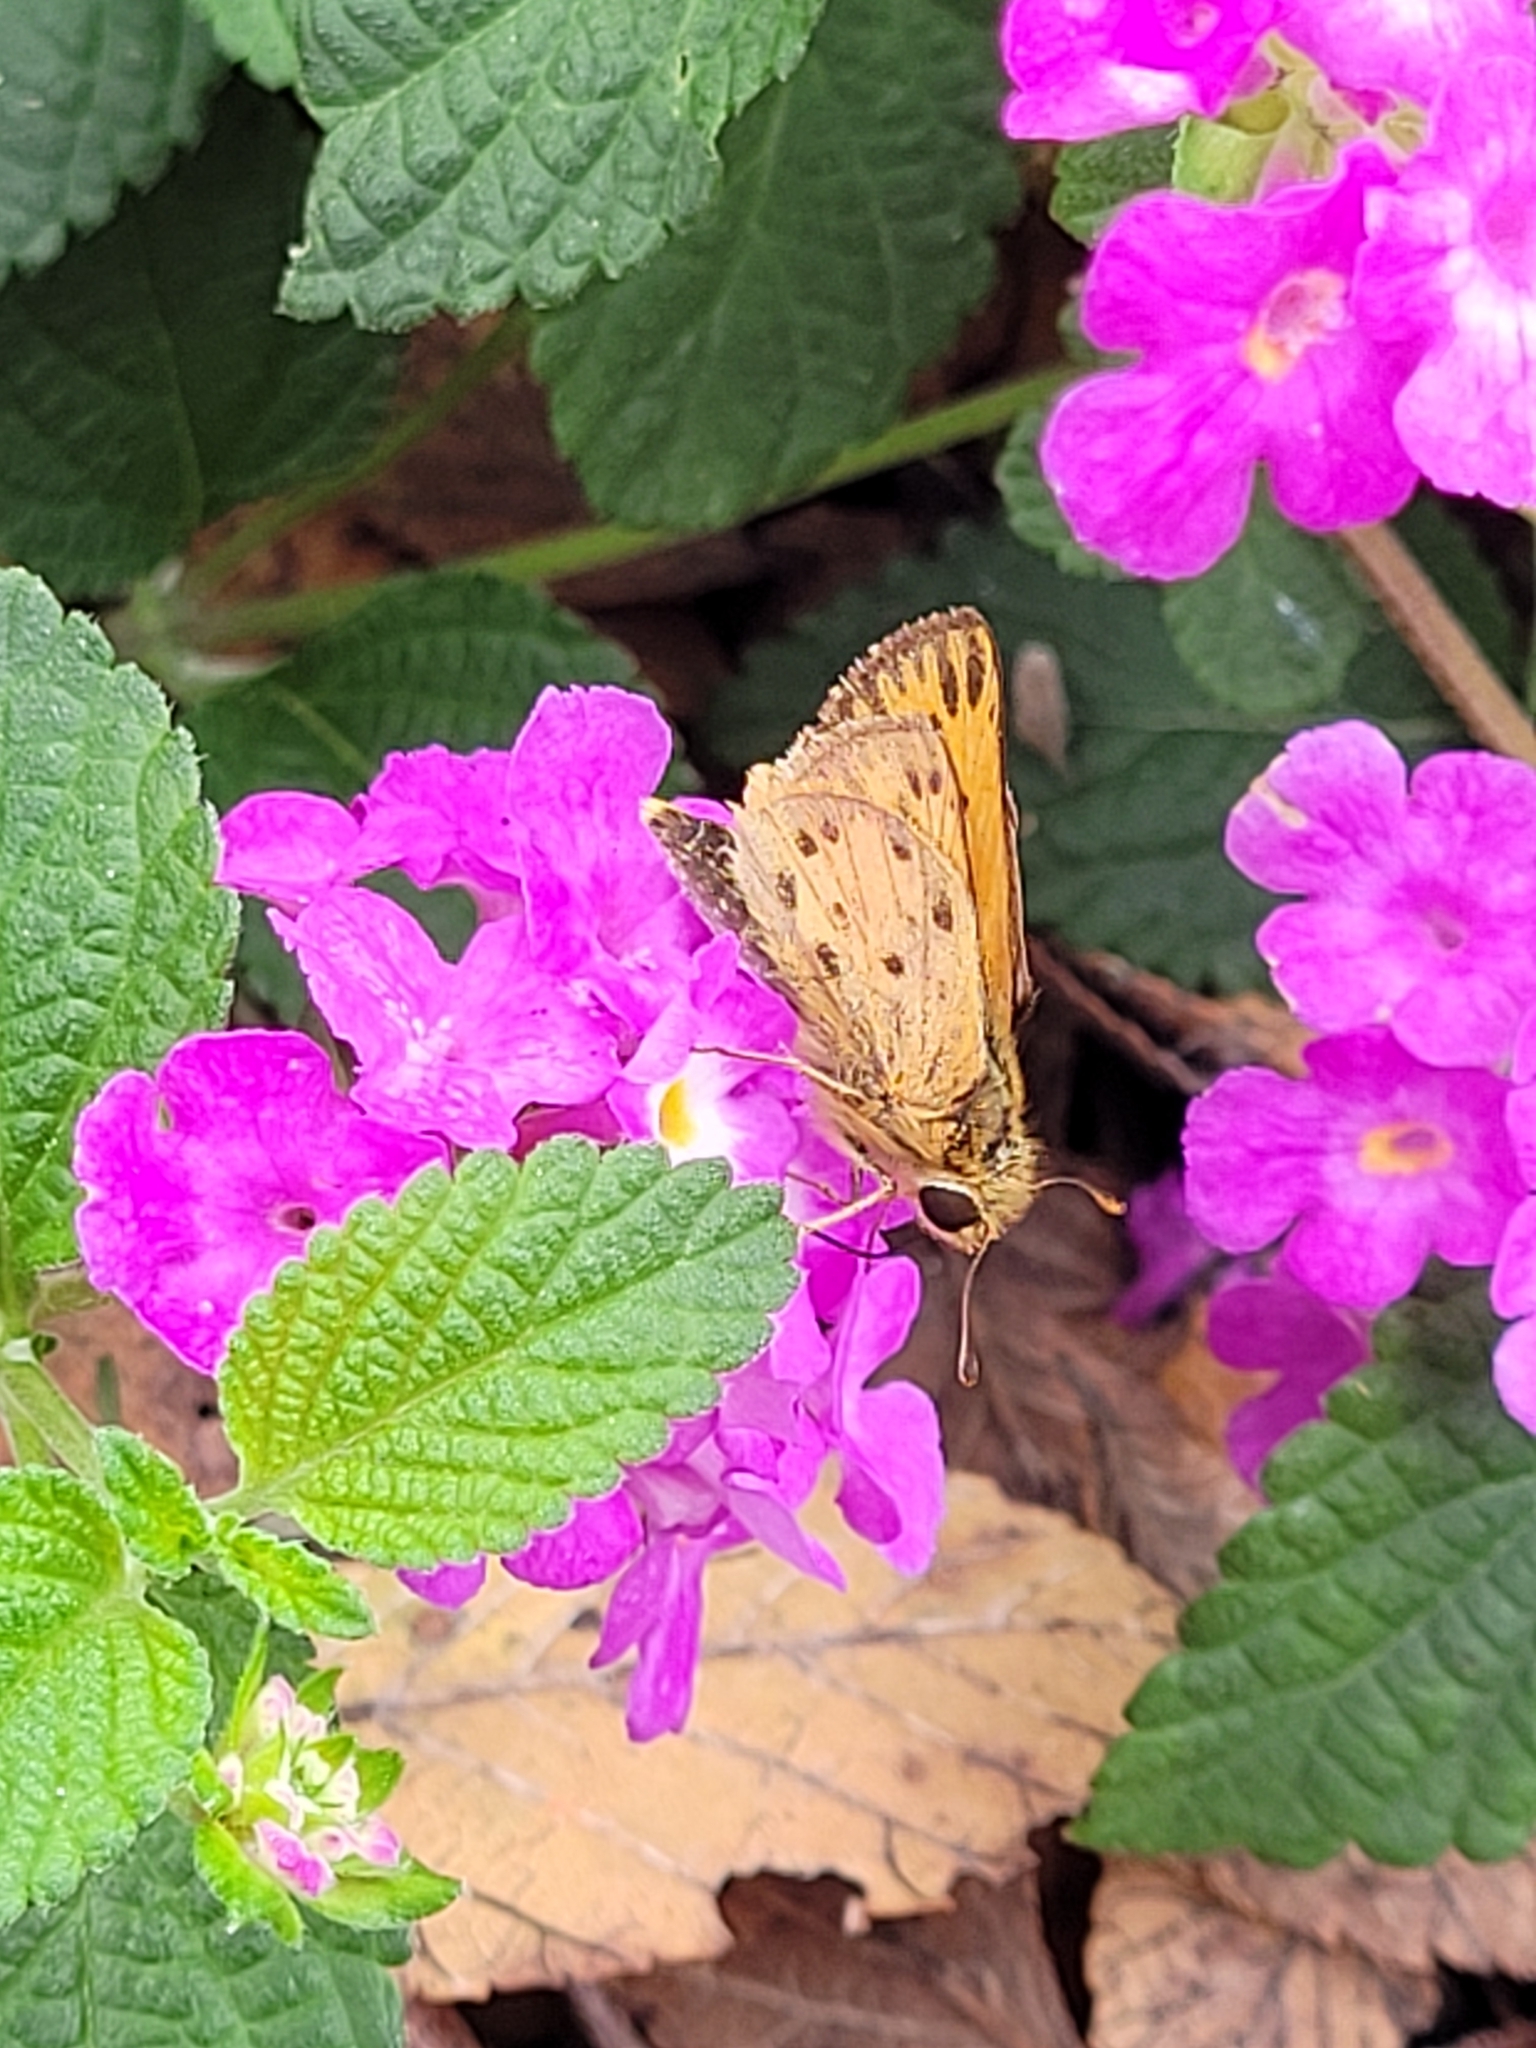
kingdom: Animalia
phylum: Arthropoda
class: Insecta
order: Lepidoptera
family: Hesperiidae
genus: Hylephila
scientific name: Hylephila phyleus
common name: Fiery skipper
